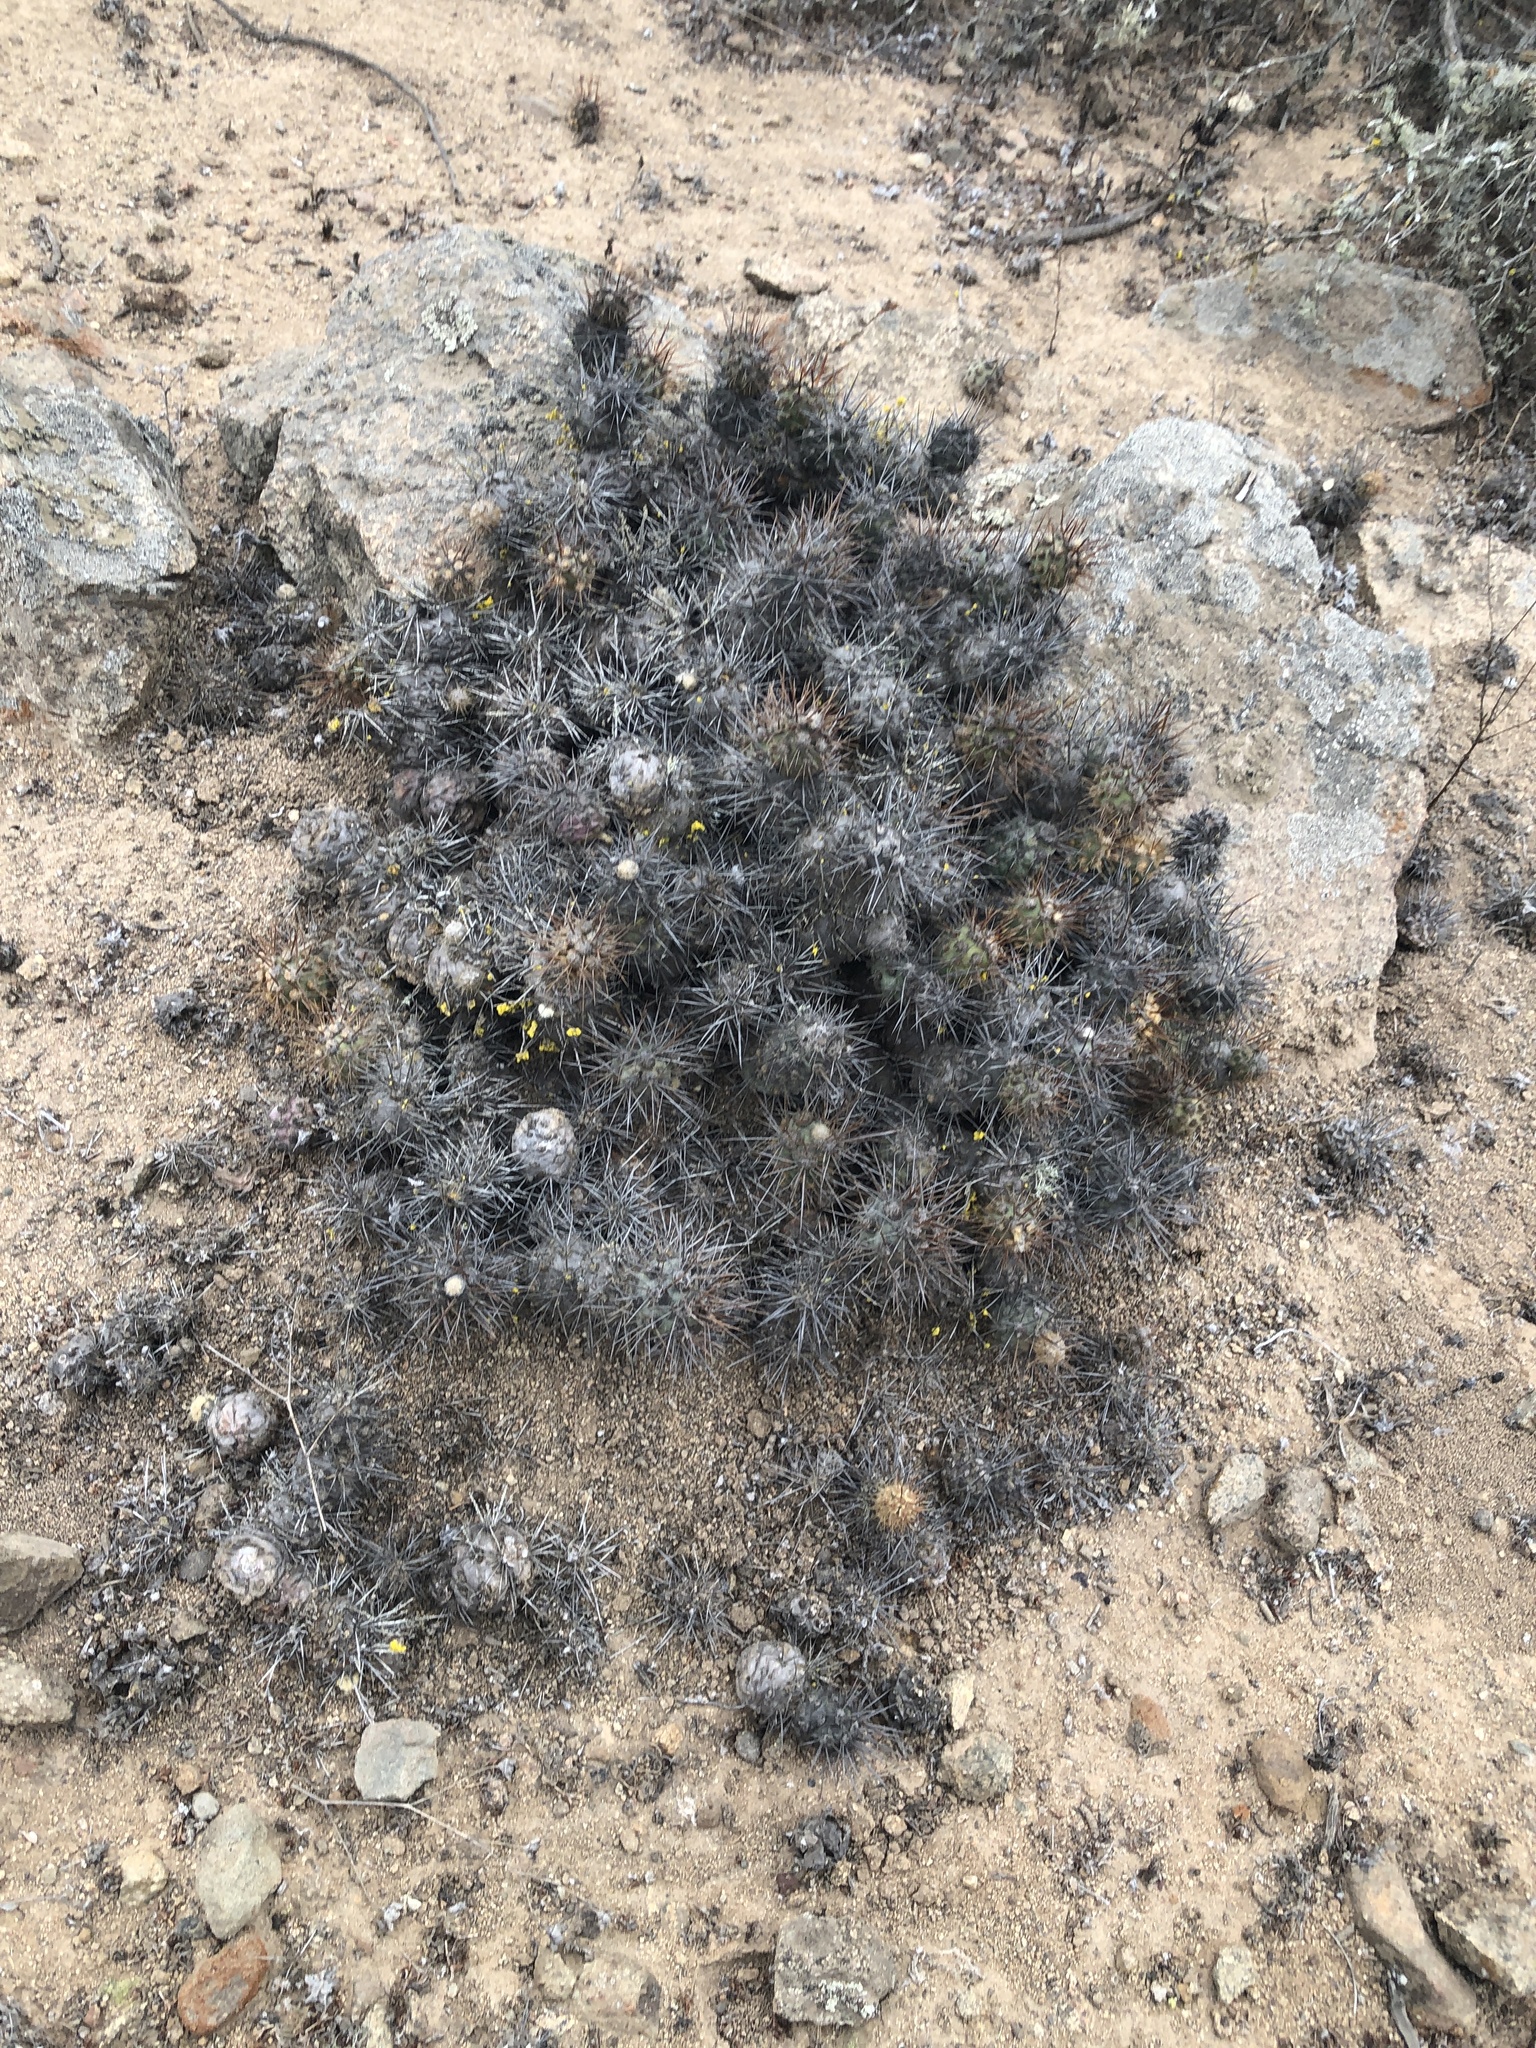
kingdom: Plantae
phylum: Tracheophyta
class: Magnoliopsida
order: Caryophyllales
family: Cactaceae
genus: Cumulopuntia
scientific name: Cumulopuntia leucophaea
